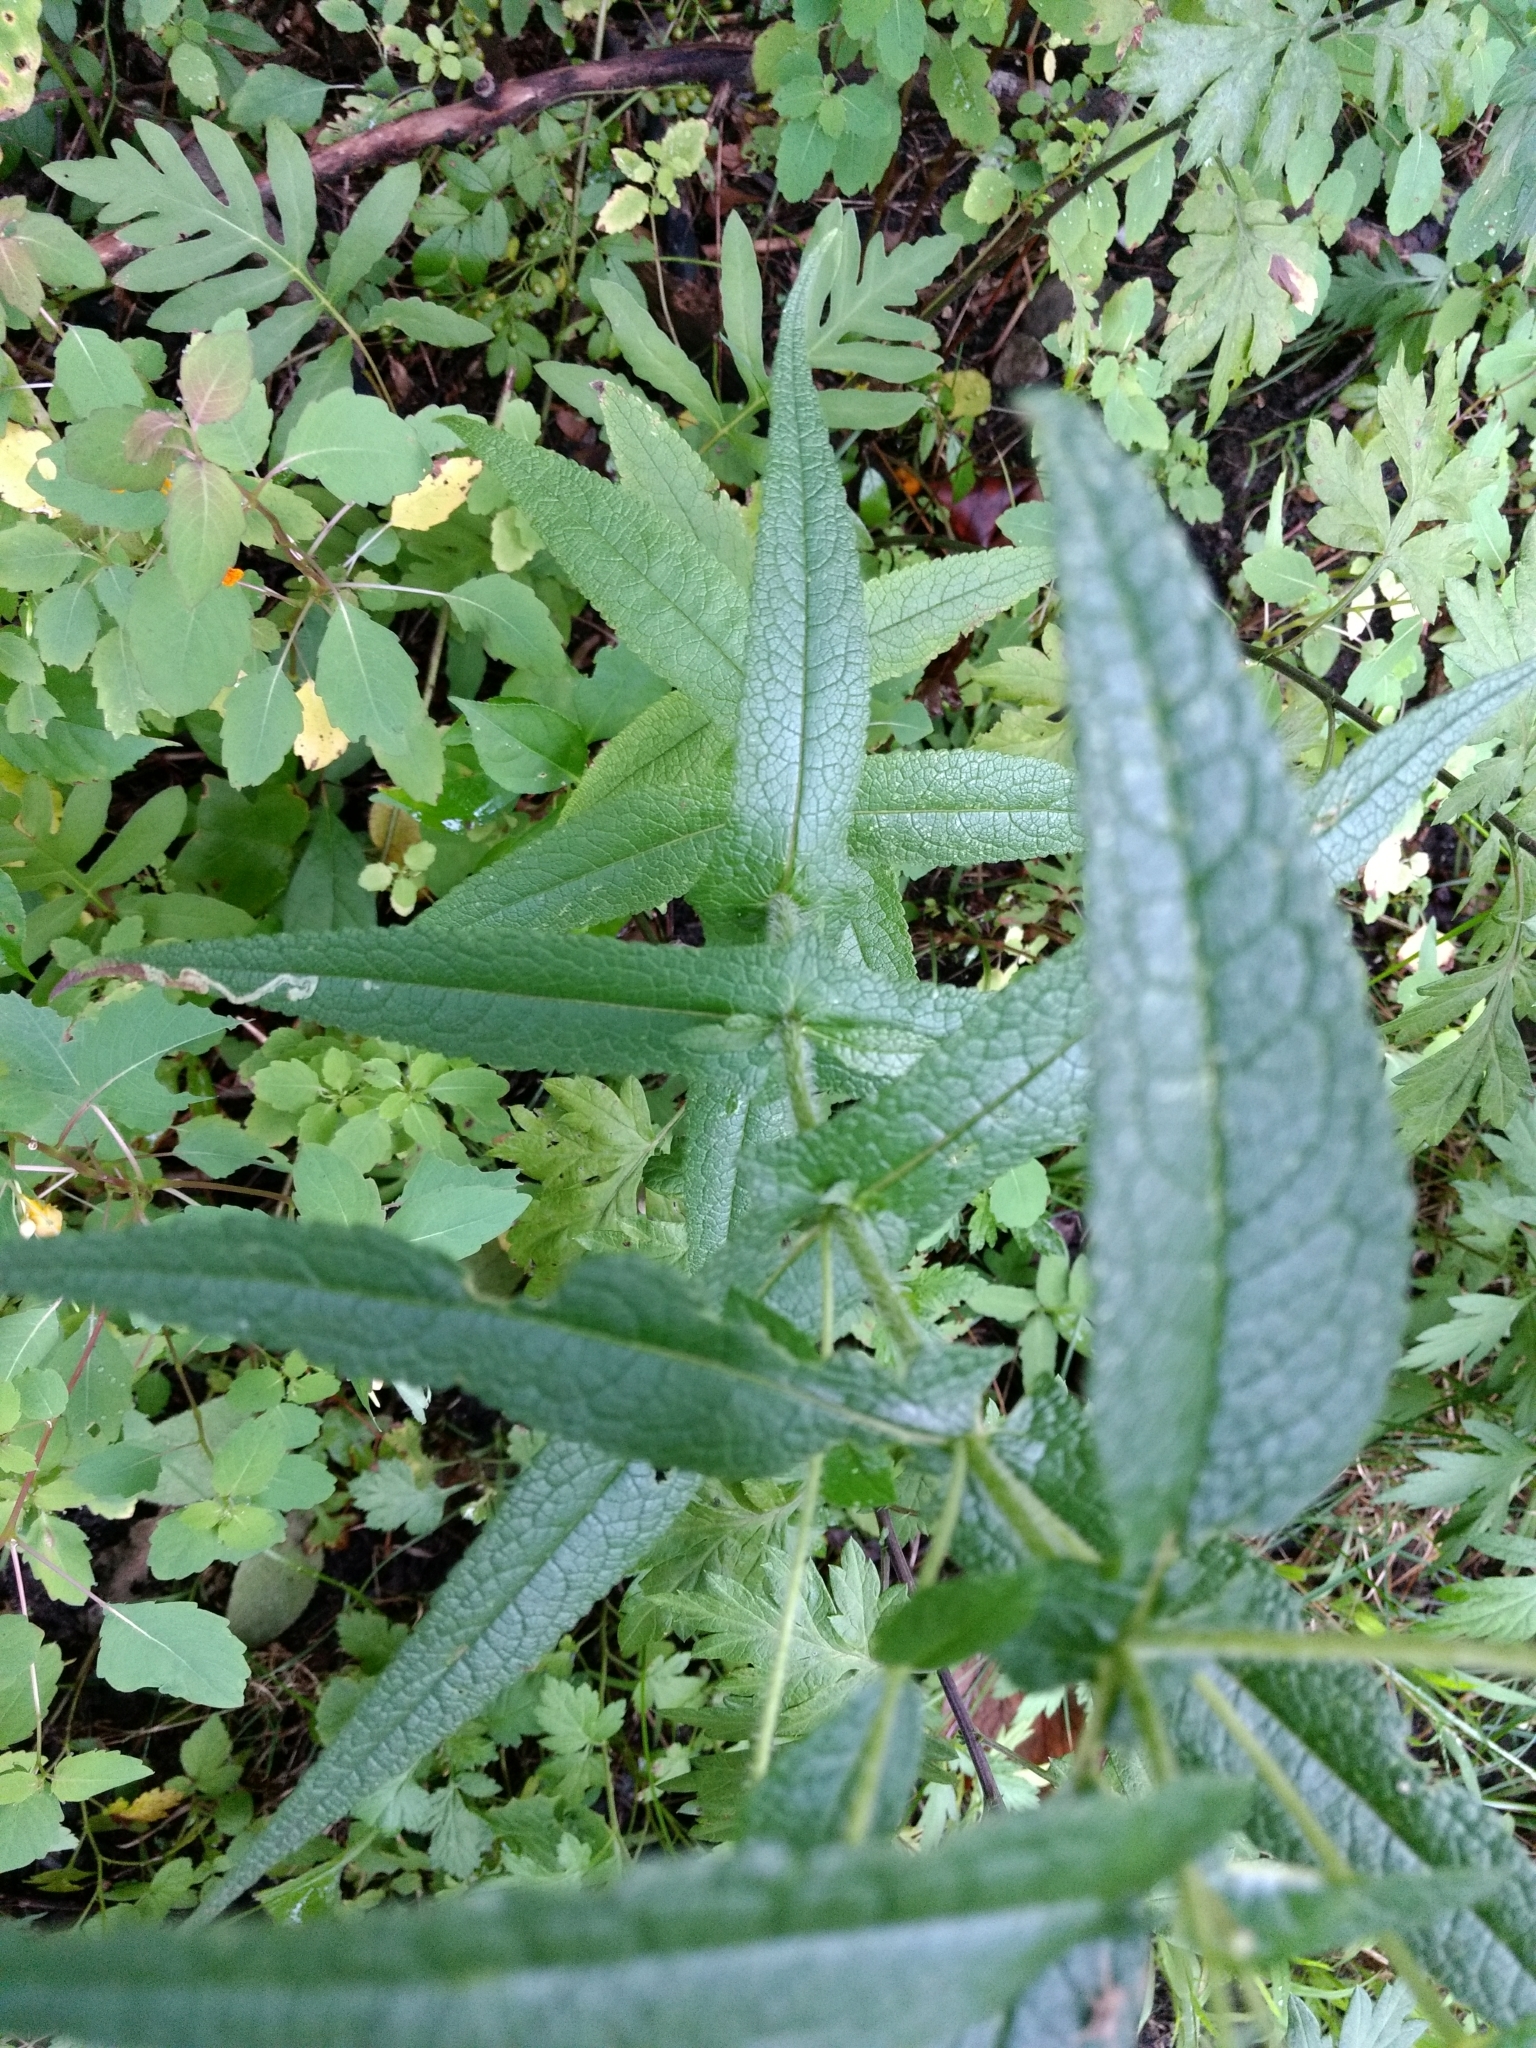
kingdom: Plantae
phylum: Tracheophyta
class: Magnoliopsida
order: Asterales
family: Asteraceae
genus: Eupatorium
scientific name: Eupatorium perfoliatum
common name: Boneset
